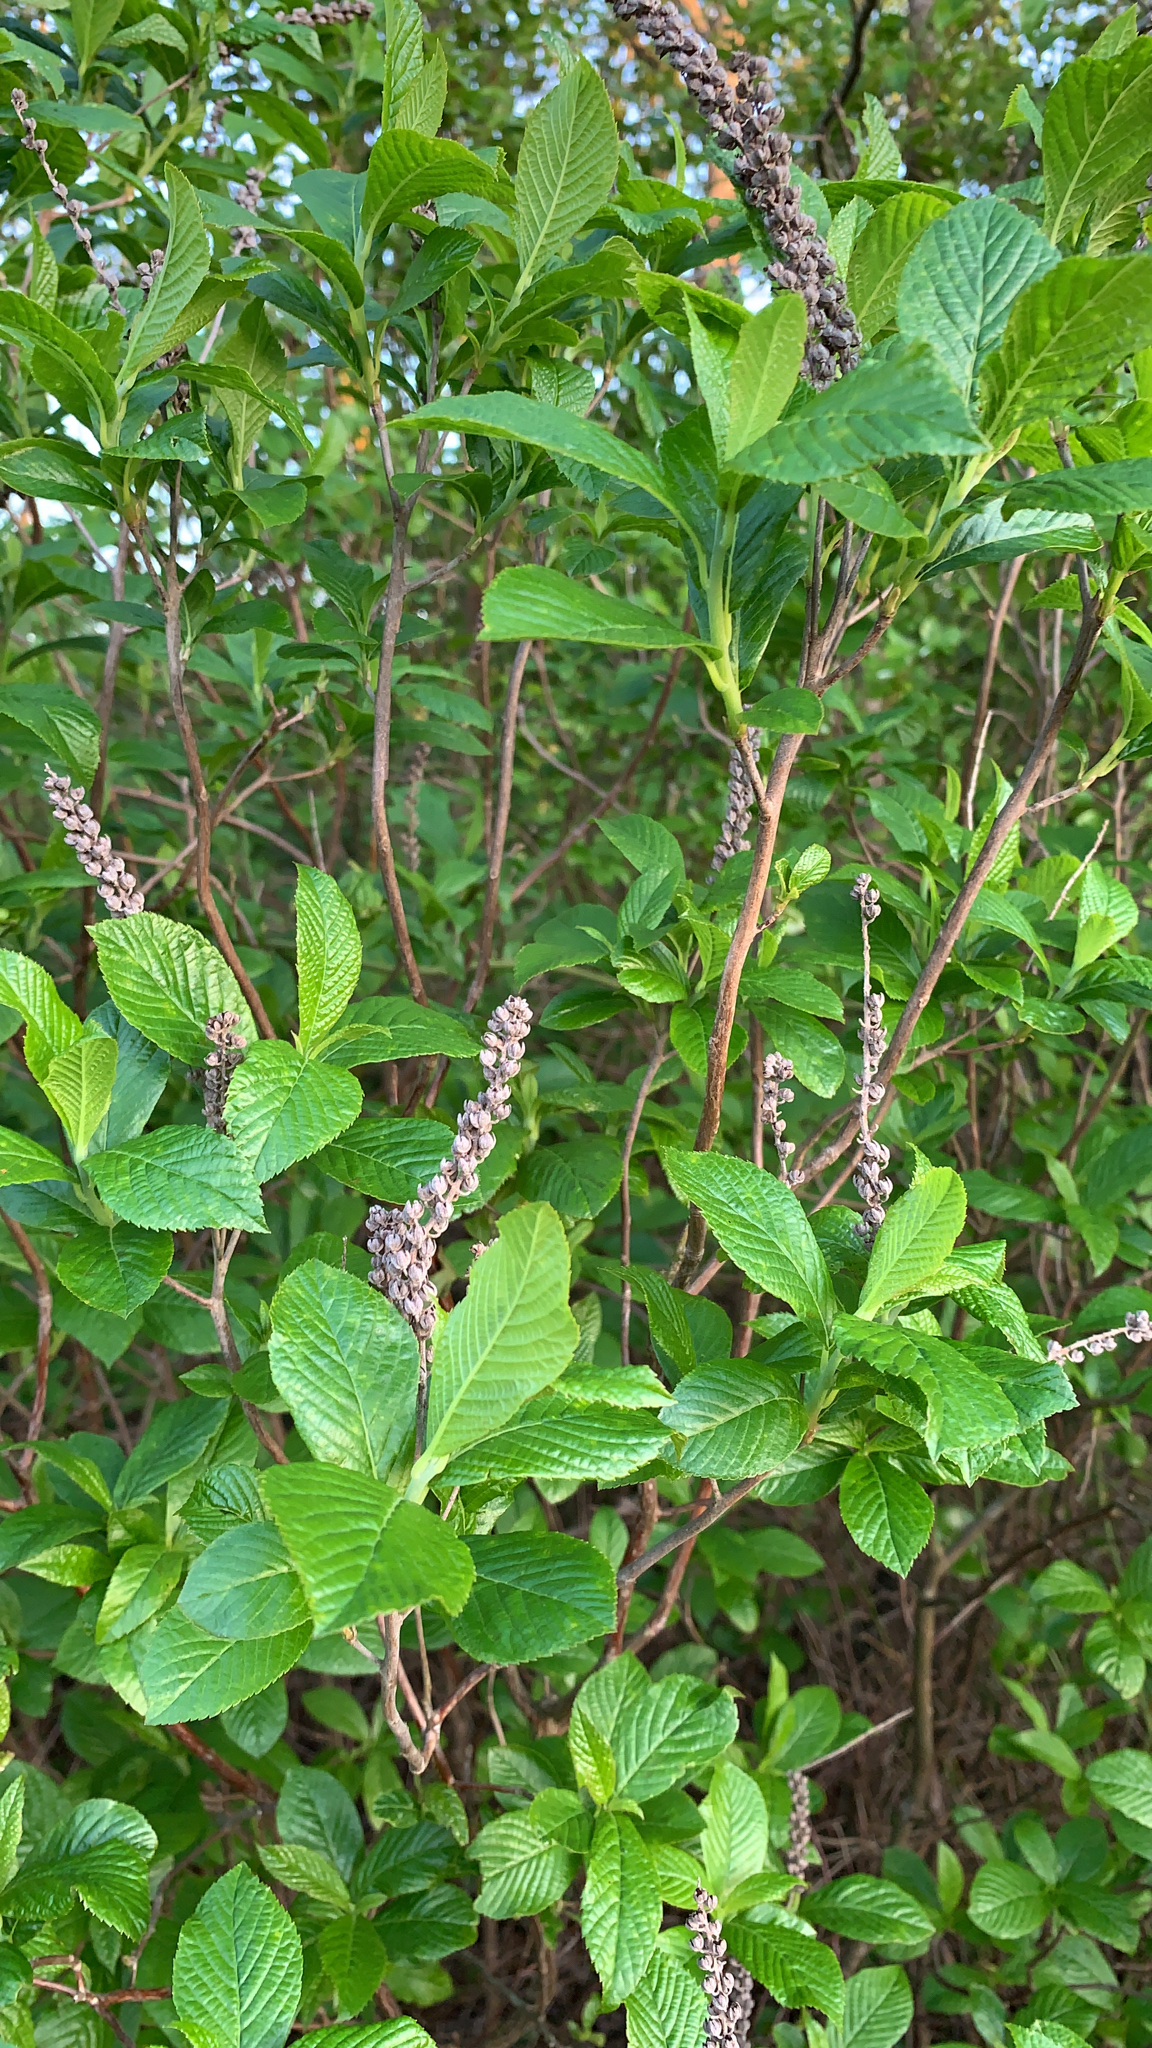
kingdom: Plantae
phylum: Tracheophyta
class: Magnoliopsida
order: Ericales
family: Clethraceae
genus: Clethra
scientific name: Clethra alnifolia
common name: Sweet pepperbush
